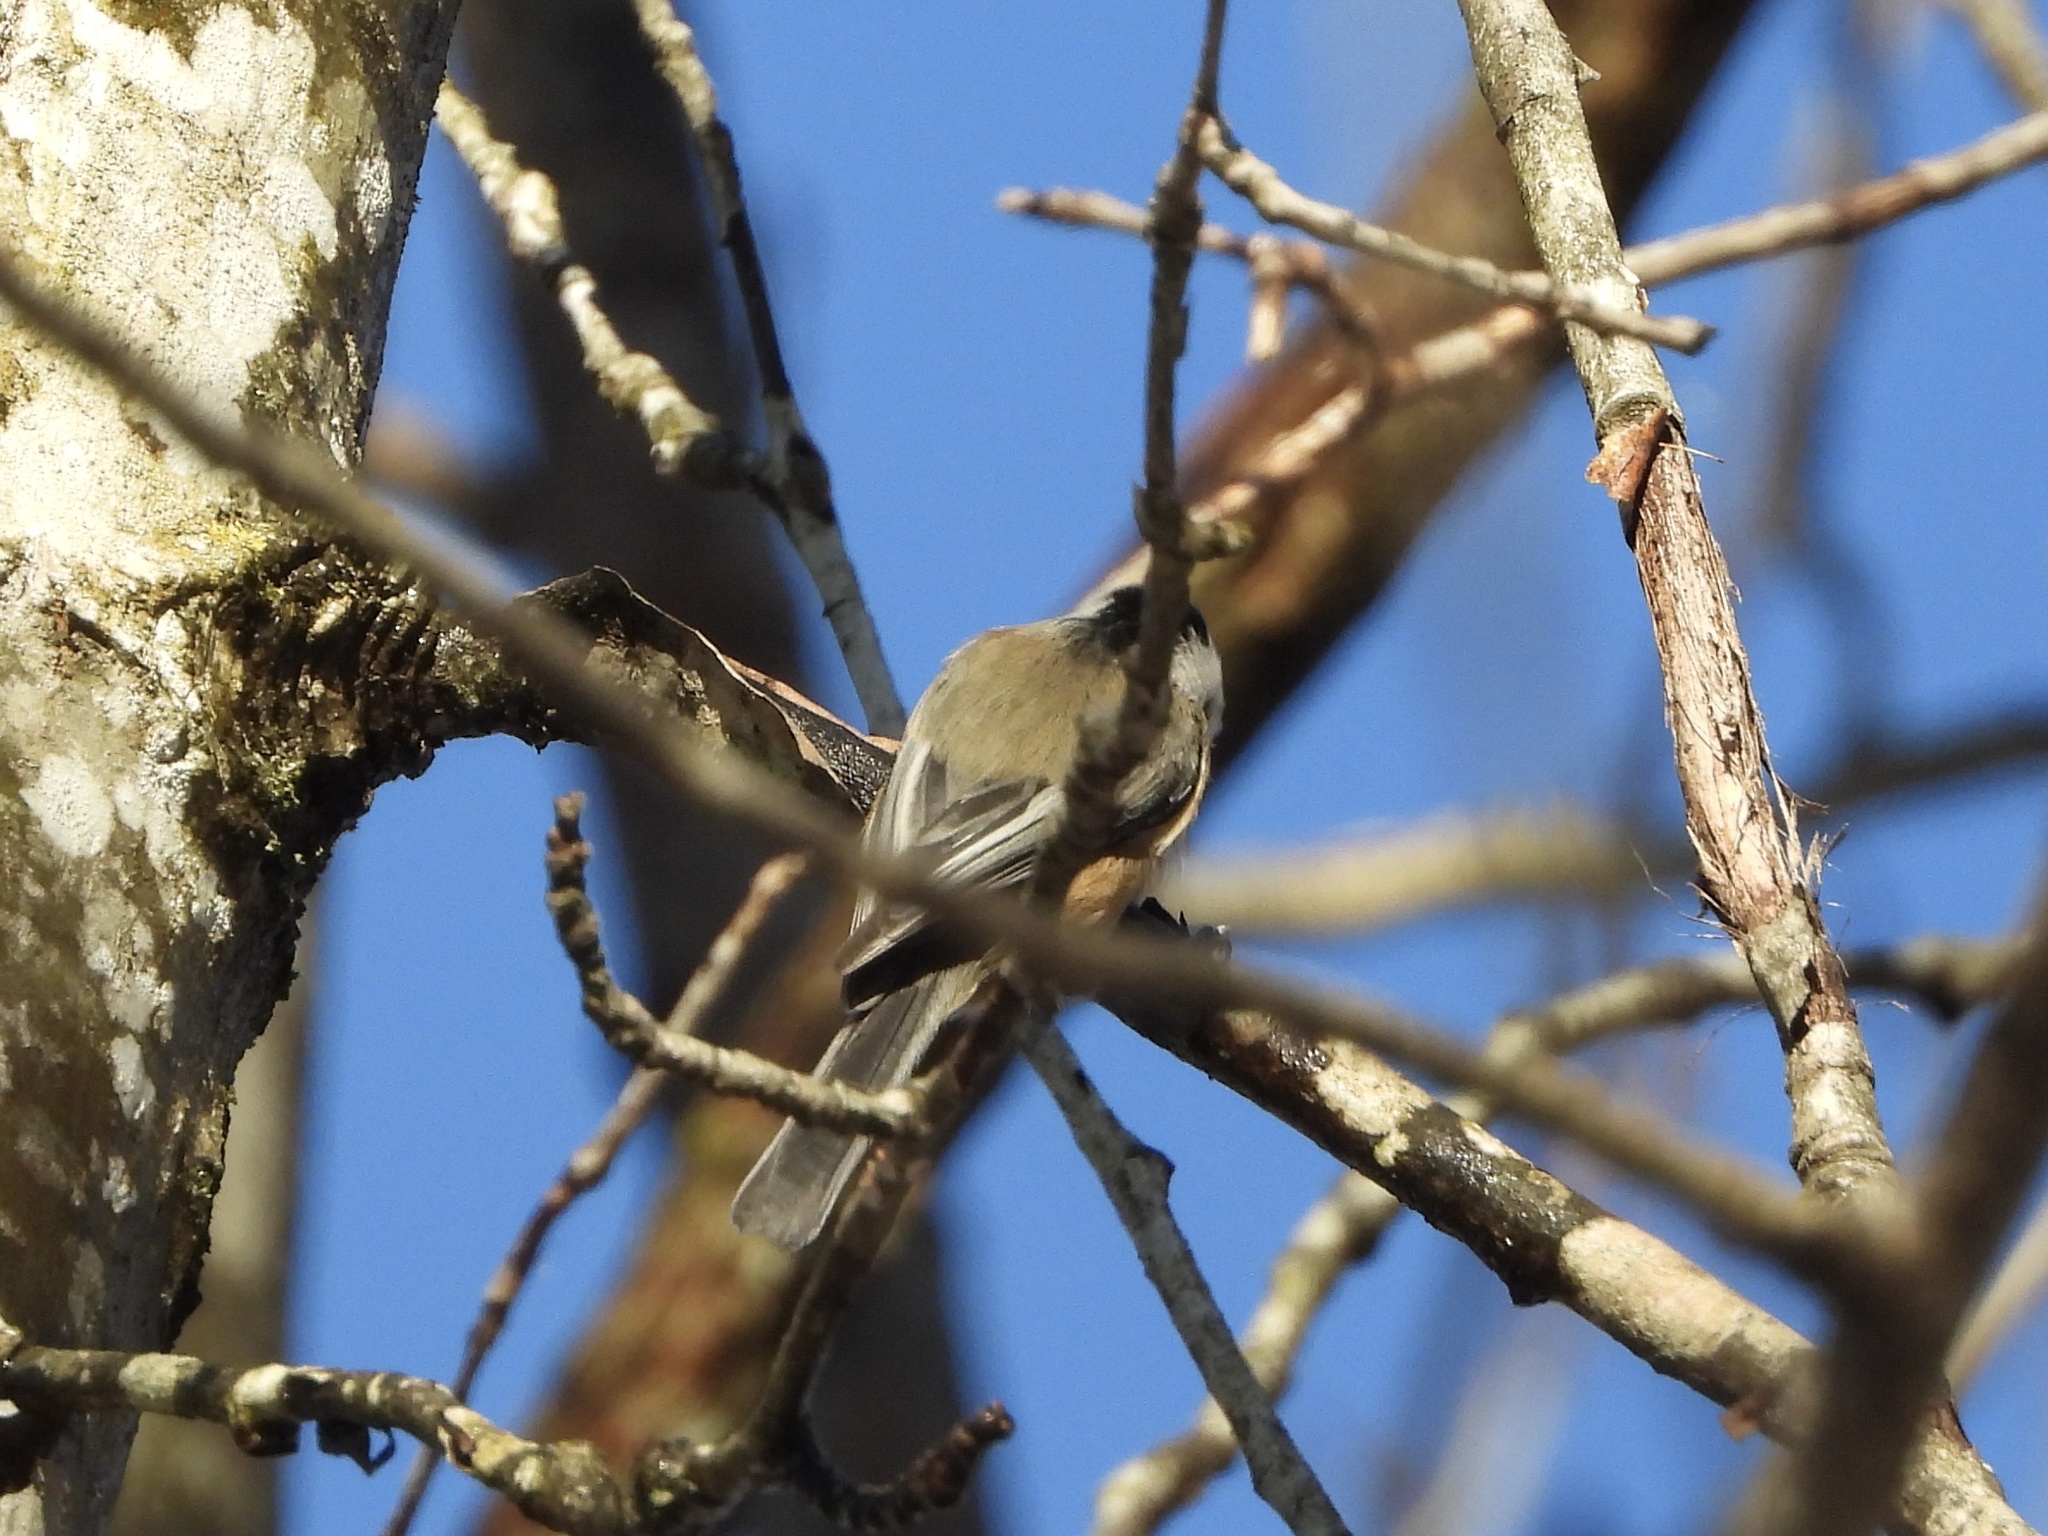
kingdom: Animalia
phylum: Chordata
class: Aves
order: Passeriformes
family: Paridae
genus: Poecile
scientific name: Poecile atricapillus
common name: Black-capped chickadee
